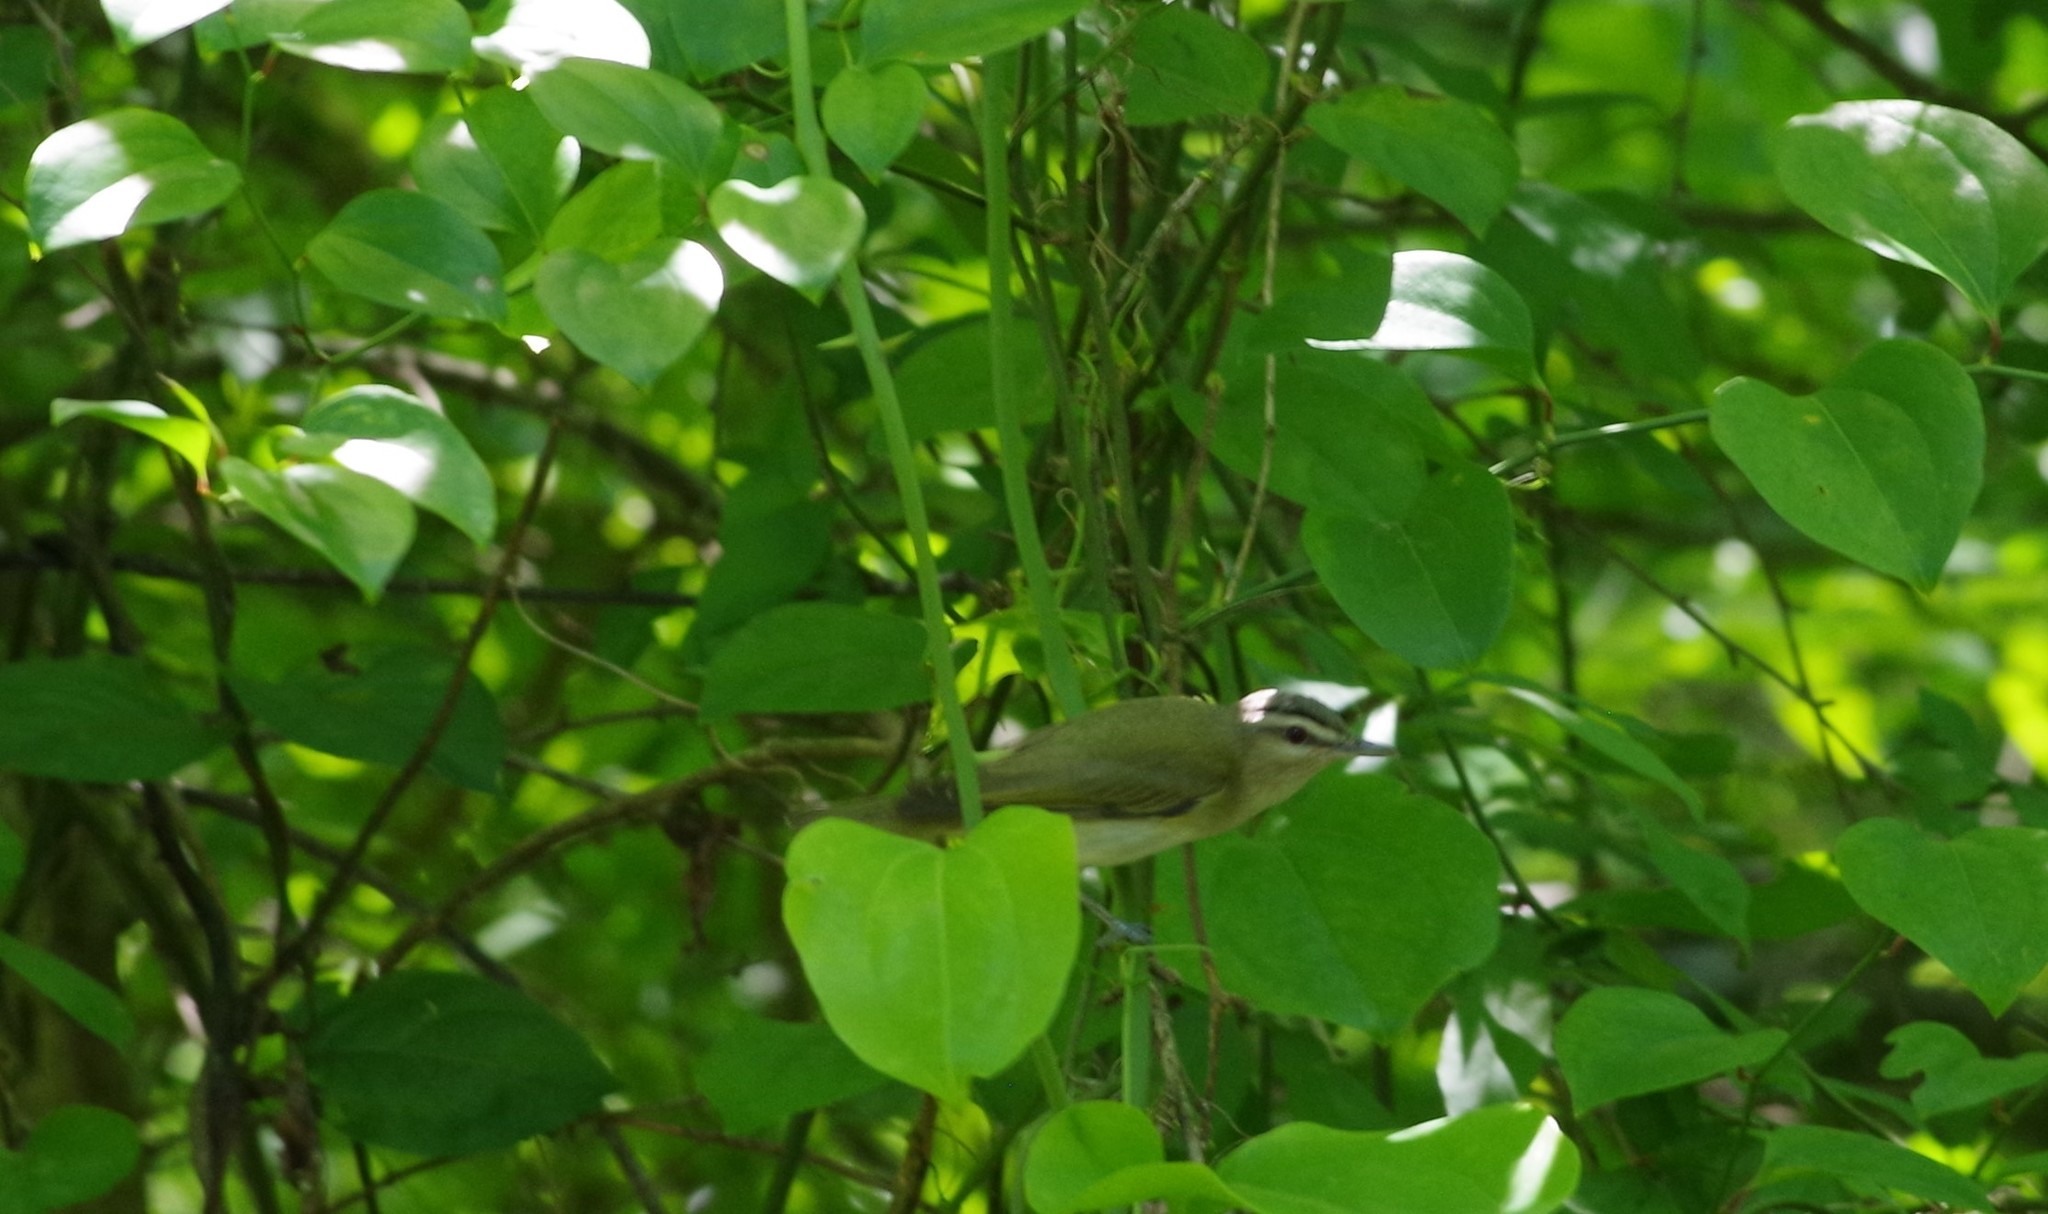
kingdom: Animalia
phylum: Chordata
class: Aves
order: Passeriformes
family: Vireonidae
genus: Vireo
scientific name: Vireo olivaceus
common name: Red-eyed vireo
